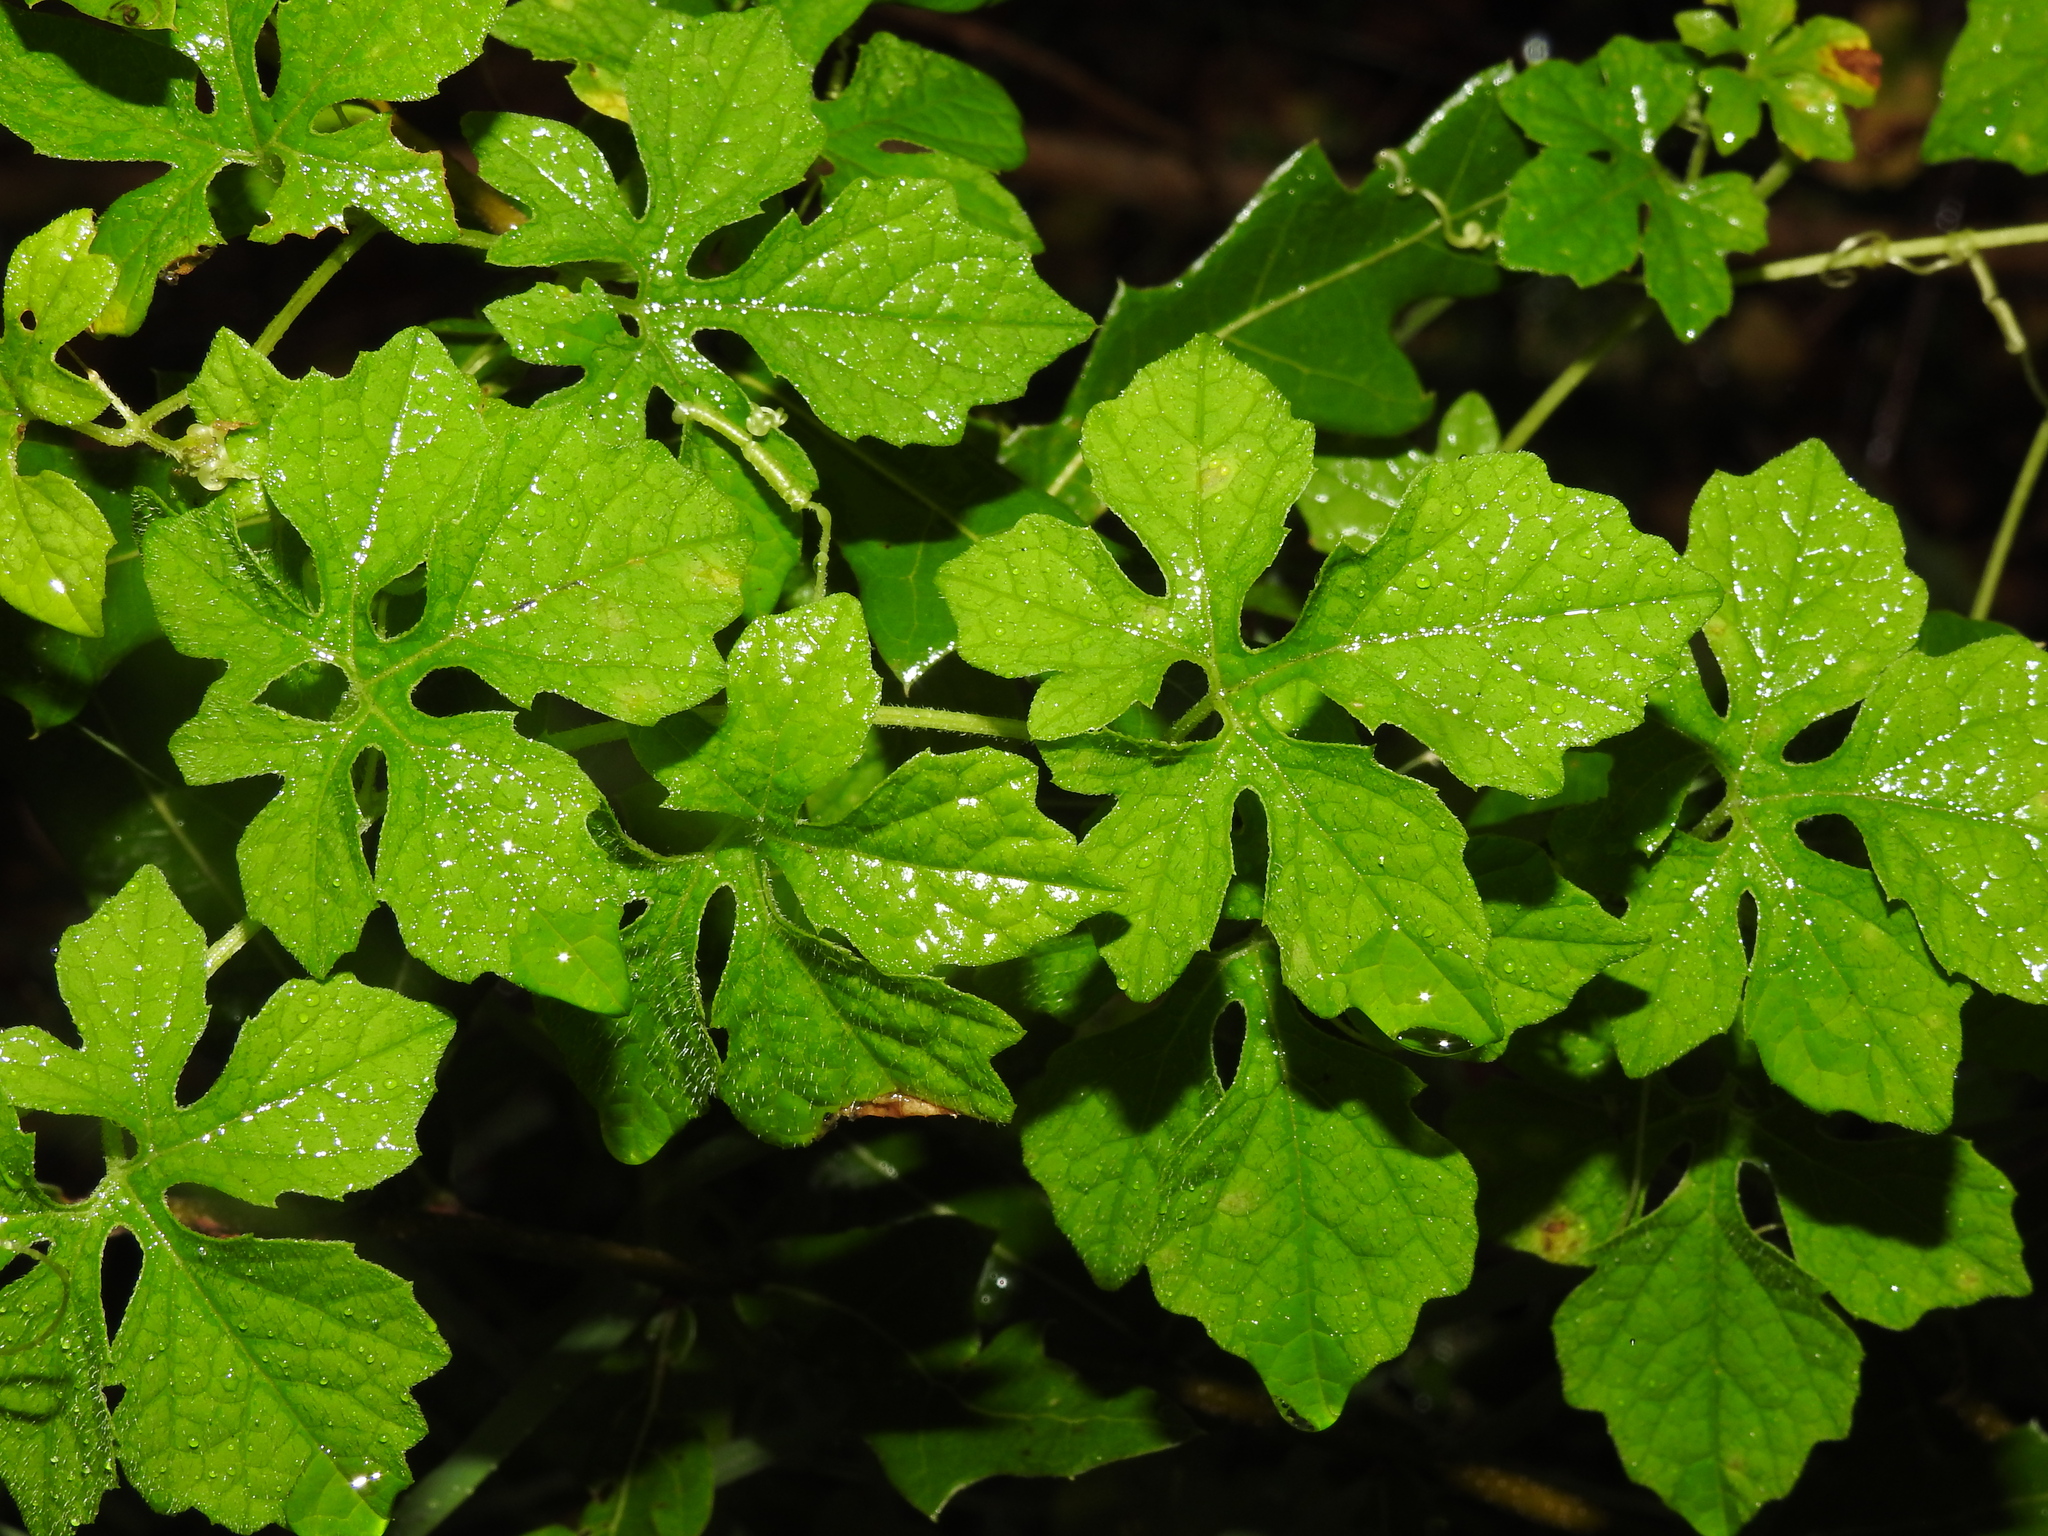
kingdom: Plantae
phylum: Tracheophyta
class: Magnoliopsida
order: Cucurbitales
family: Cucurbitaceae
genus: Momordica
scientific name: Momordica charantia
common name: Balsampear
